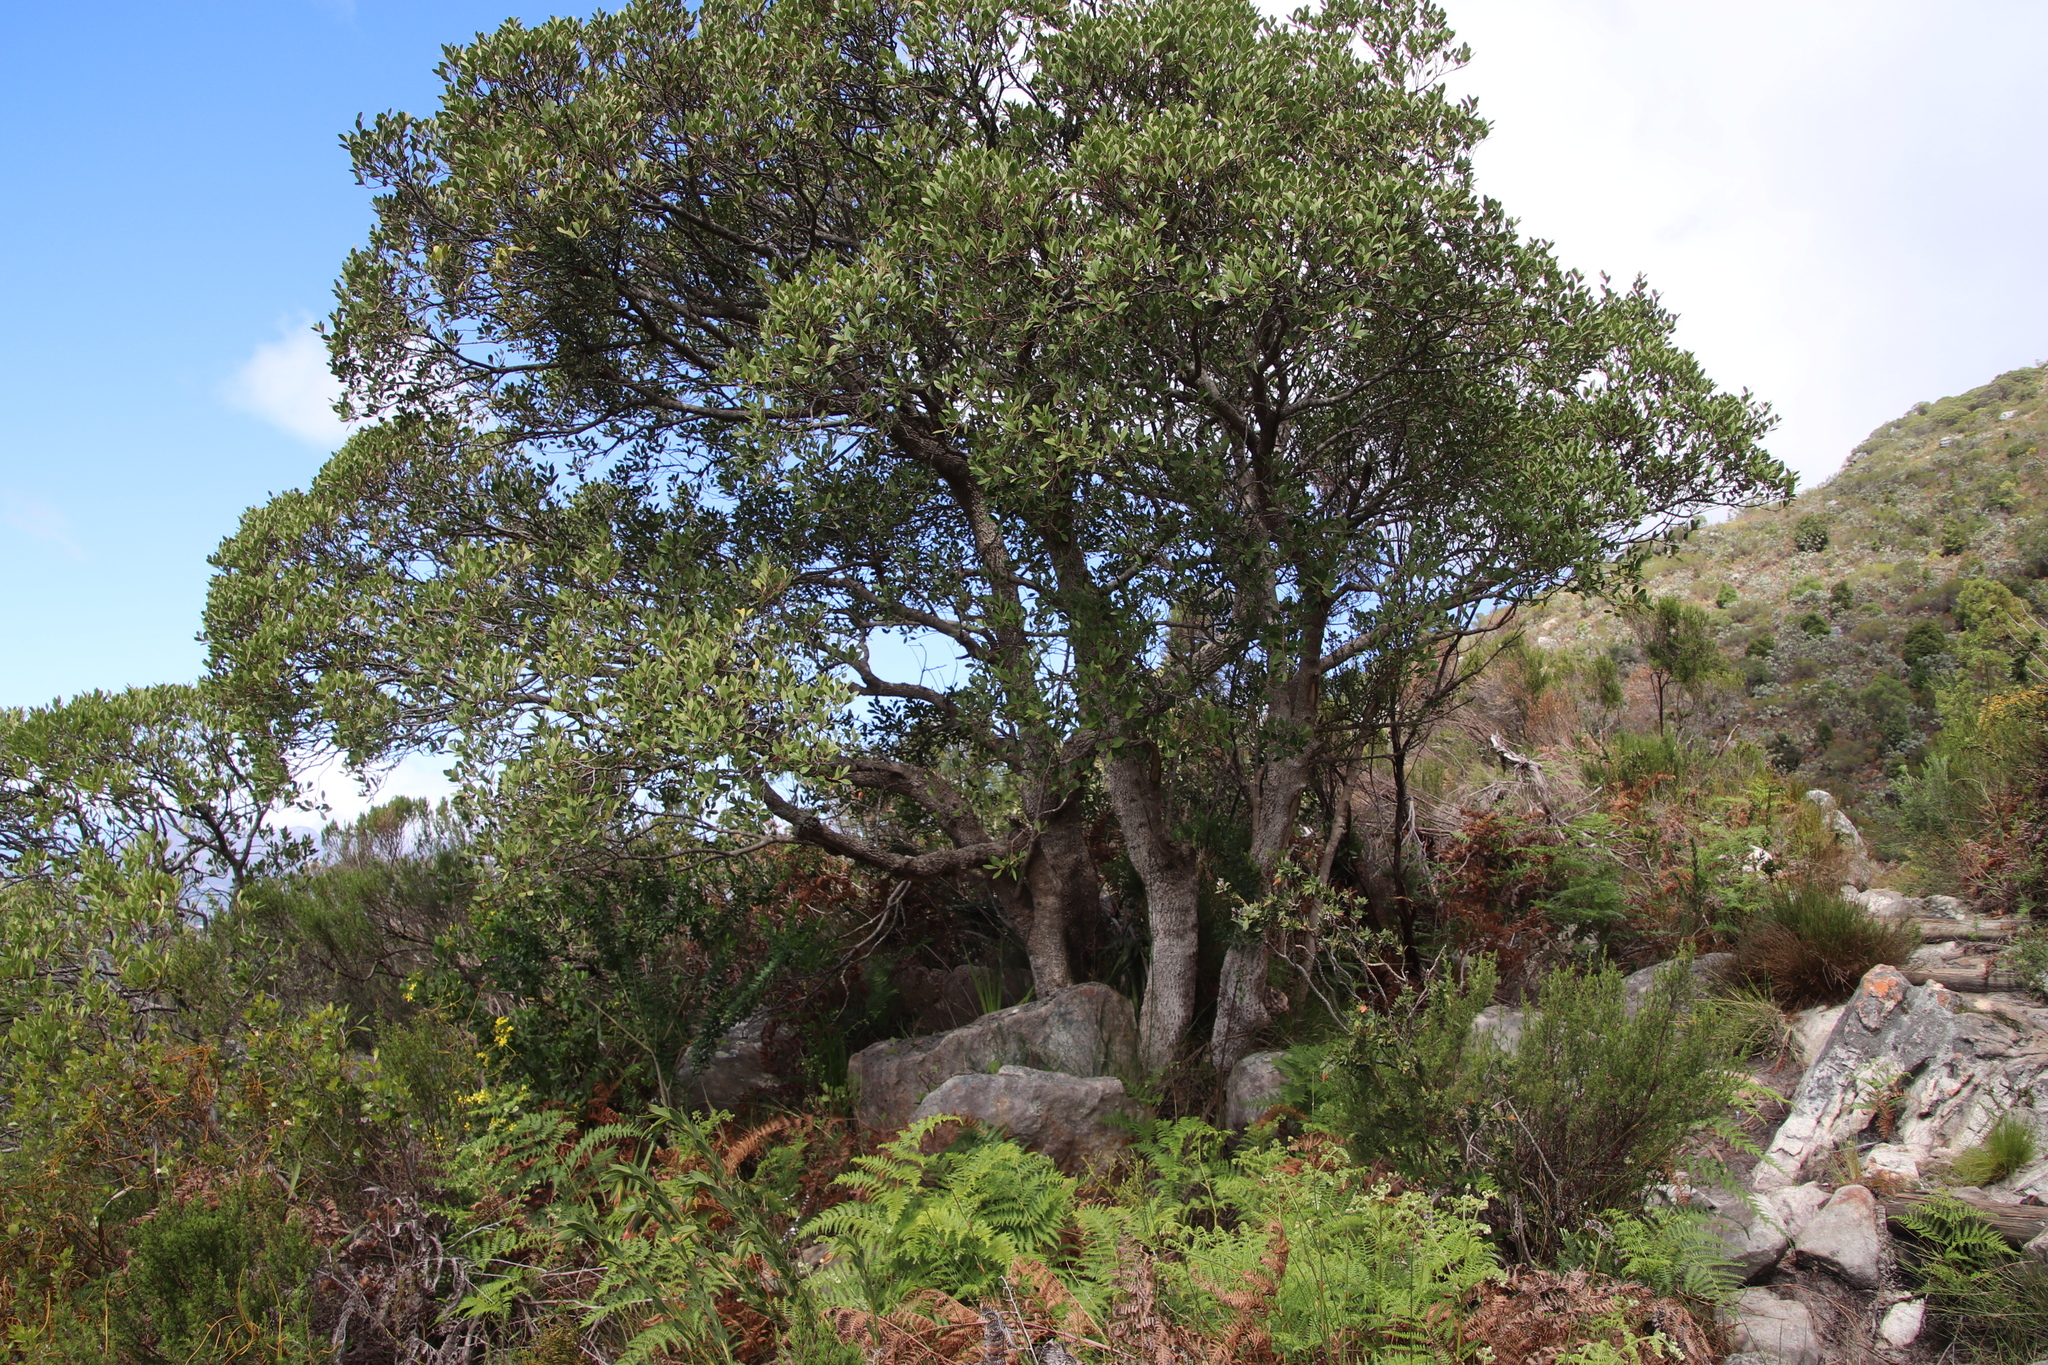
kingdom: Plantae
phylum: Tracheophyta
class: Magnoliopsida
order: Celastrales
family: Celastraceae
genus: Gymnosporia
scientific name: Gymnosporia laurina
